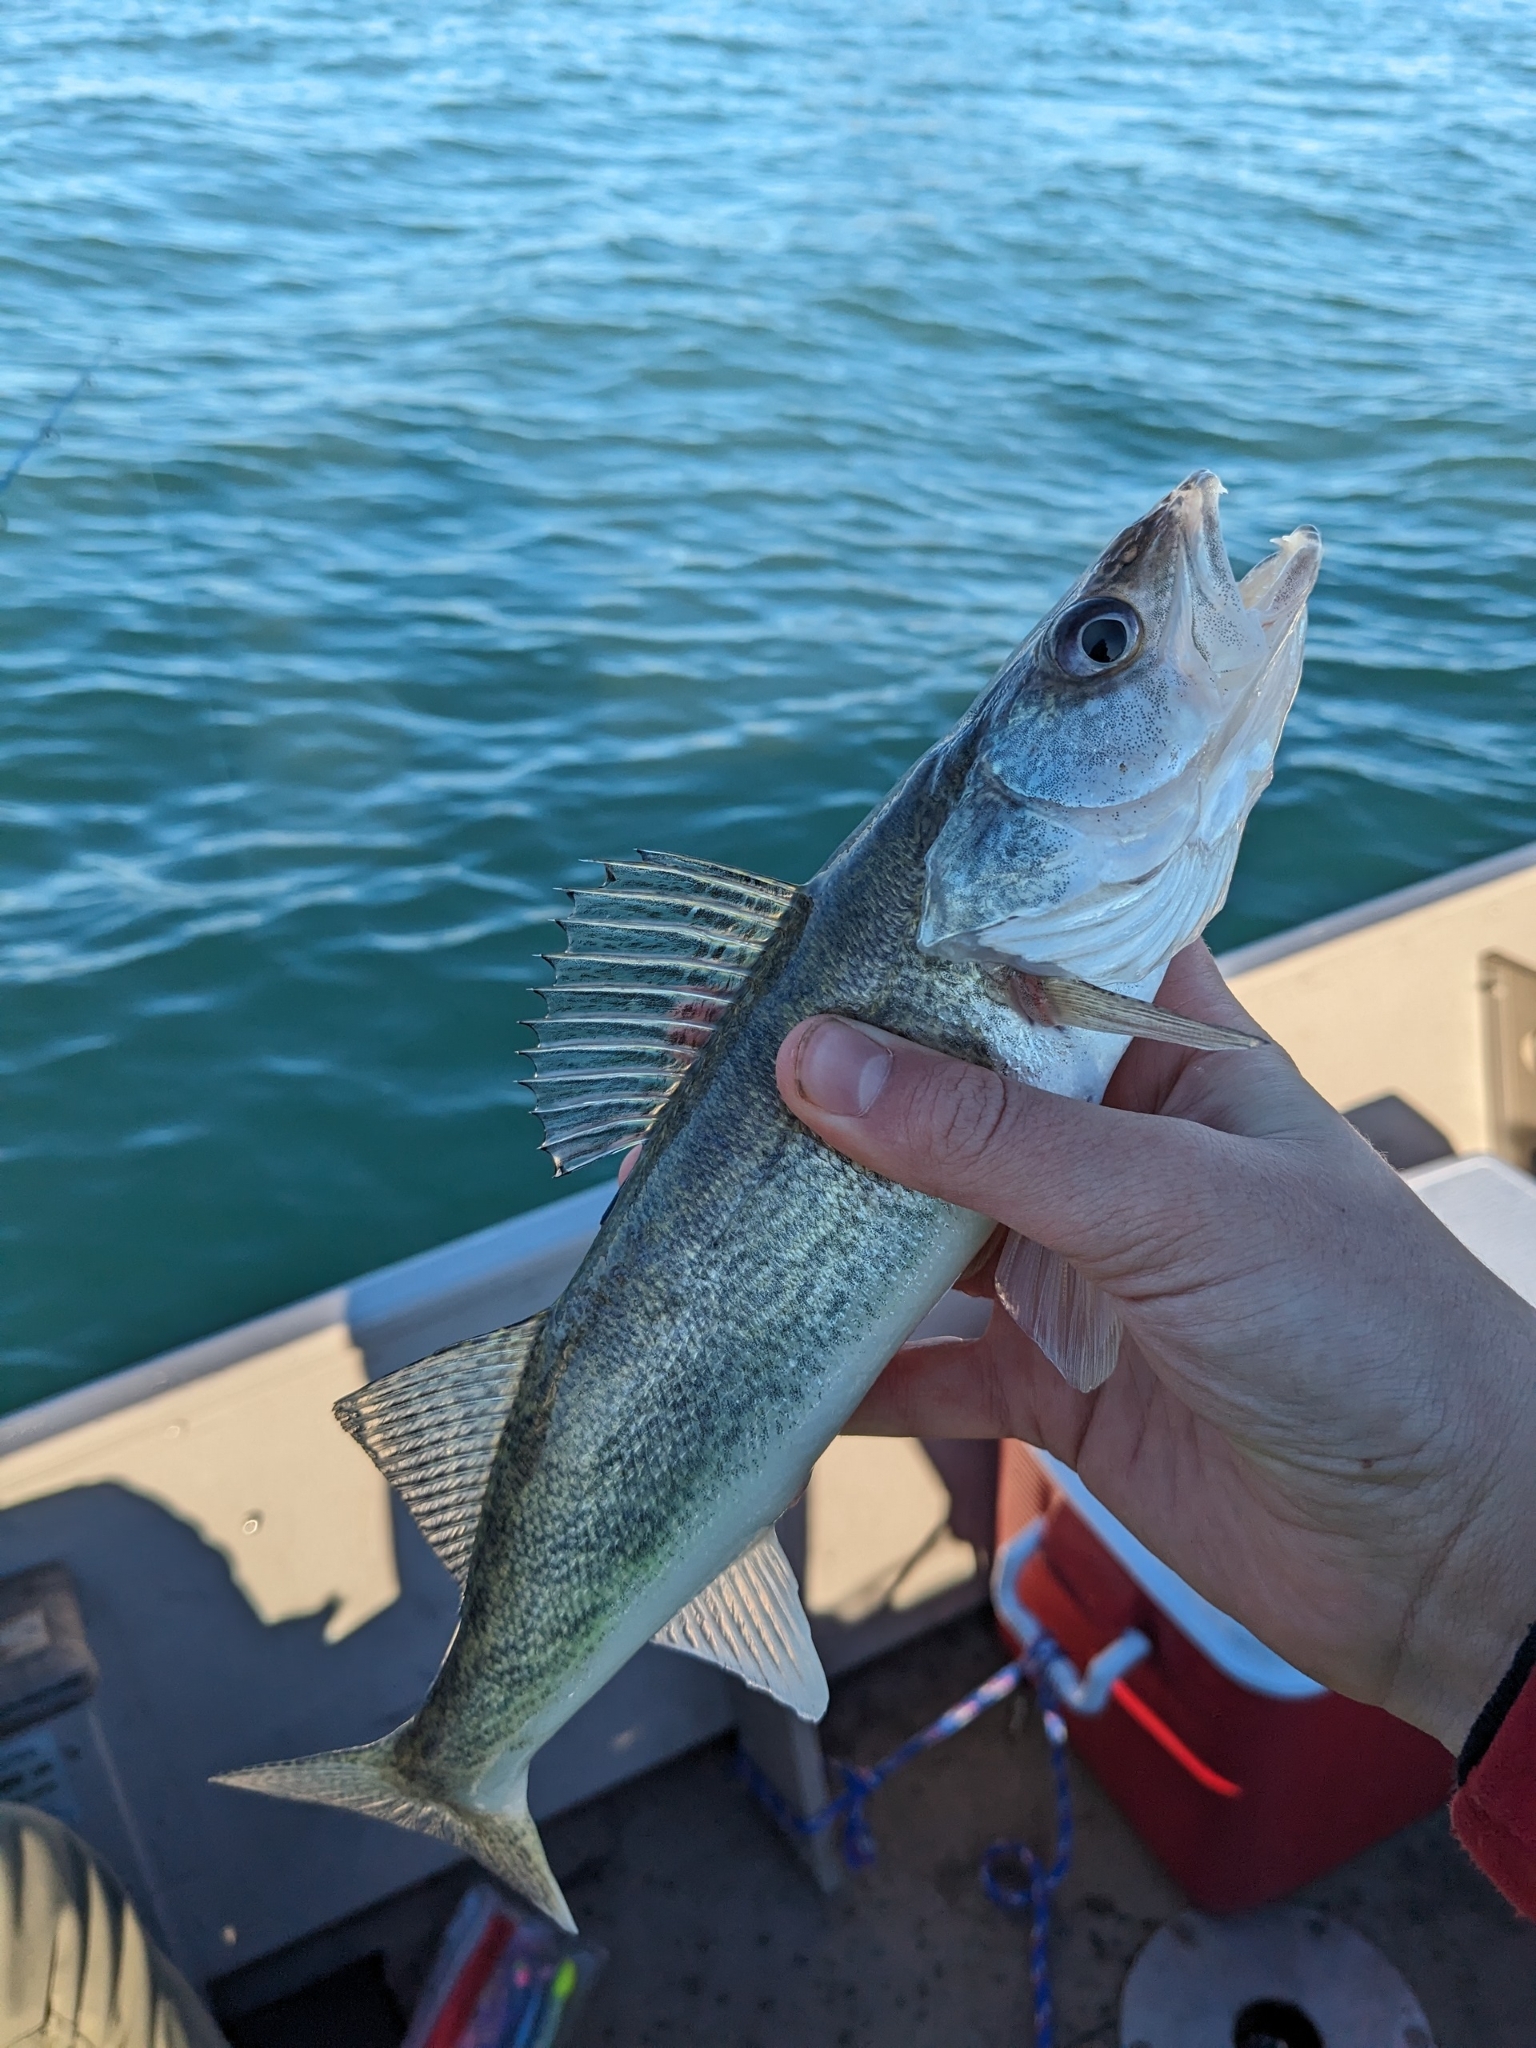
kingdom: Animalia
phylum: Chordata
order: Perciformes
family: Percidae
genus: Sander
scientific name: Sander vitreus
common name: Walleye
